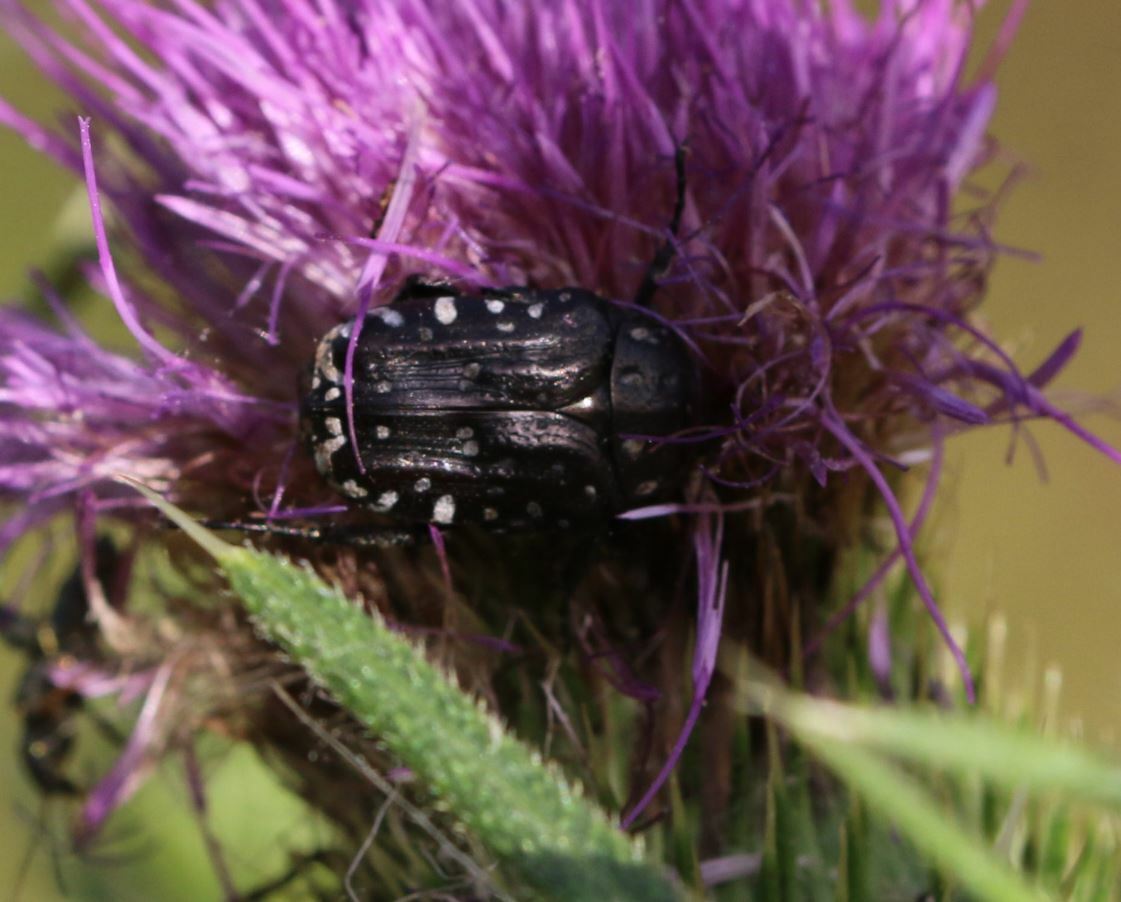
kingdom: Animalia
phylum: Arthropoda
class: Insecta
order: Coleoptera
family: Scarabaeidae
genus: Oxythyrea
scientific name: Oxythyrea funesta
